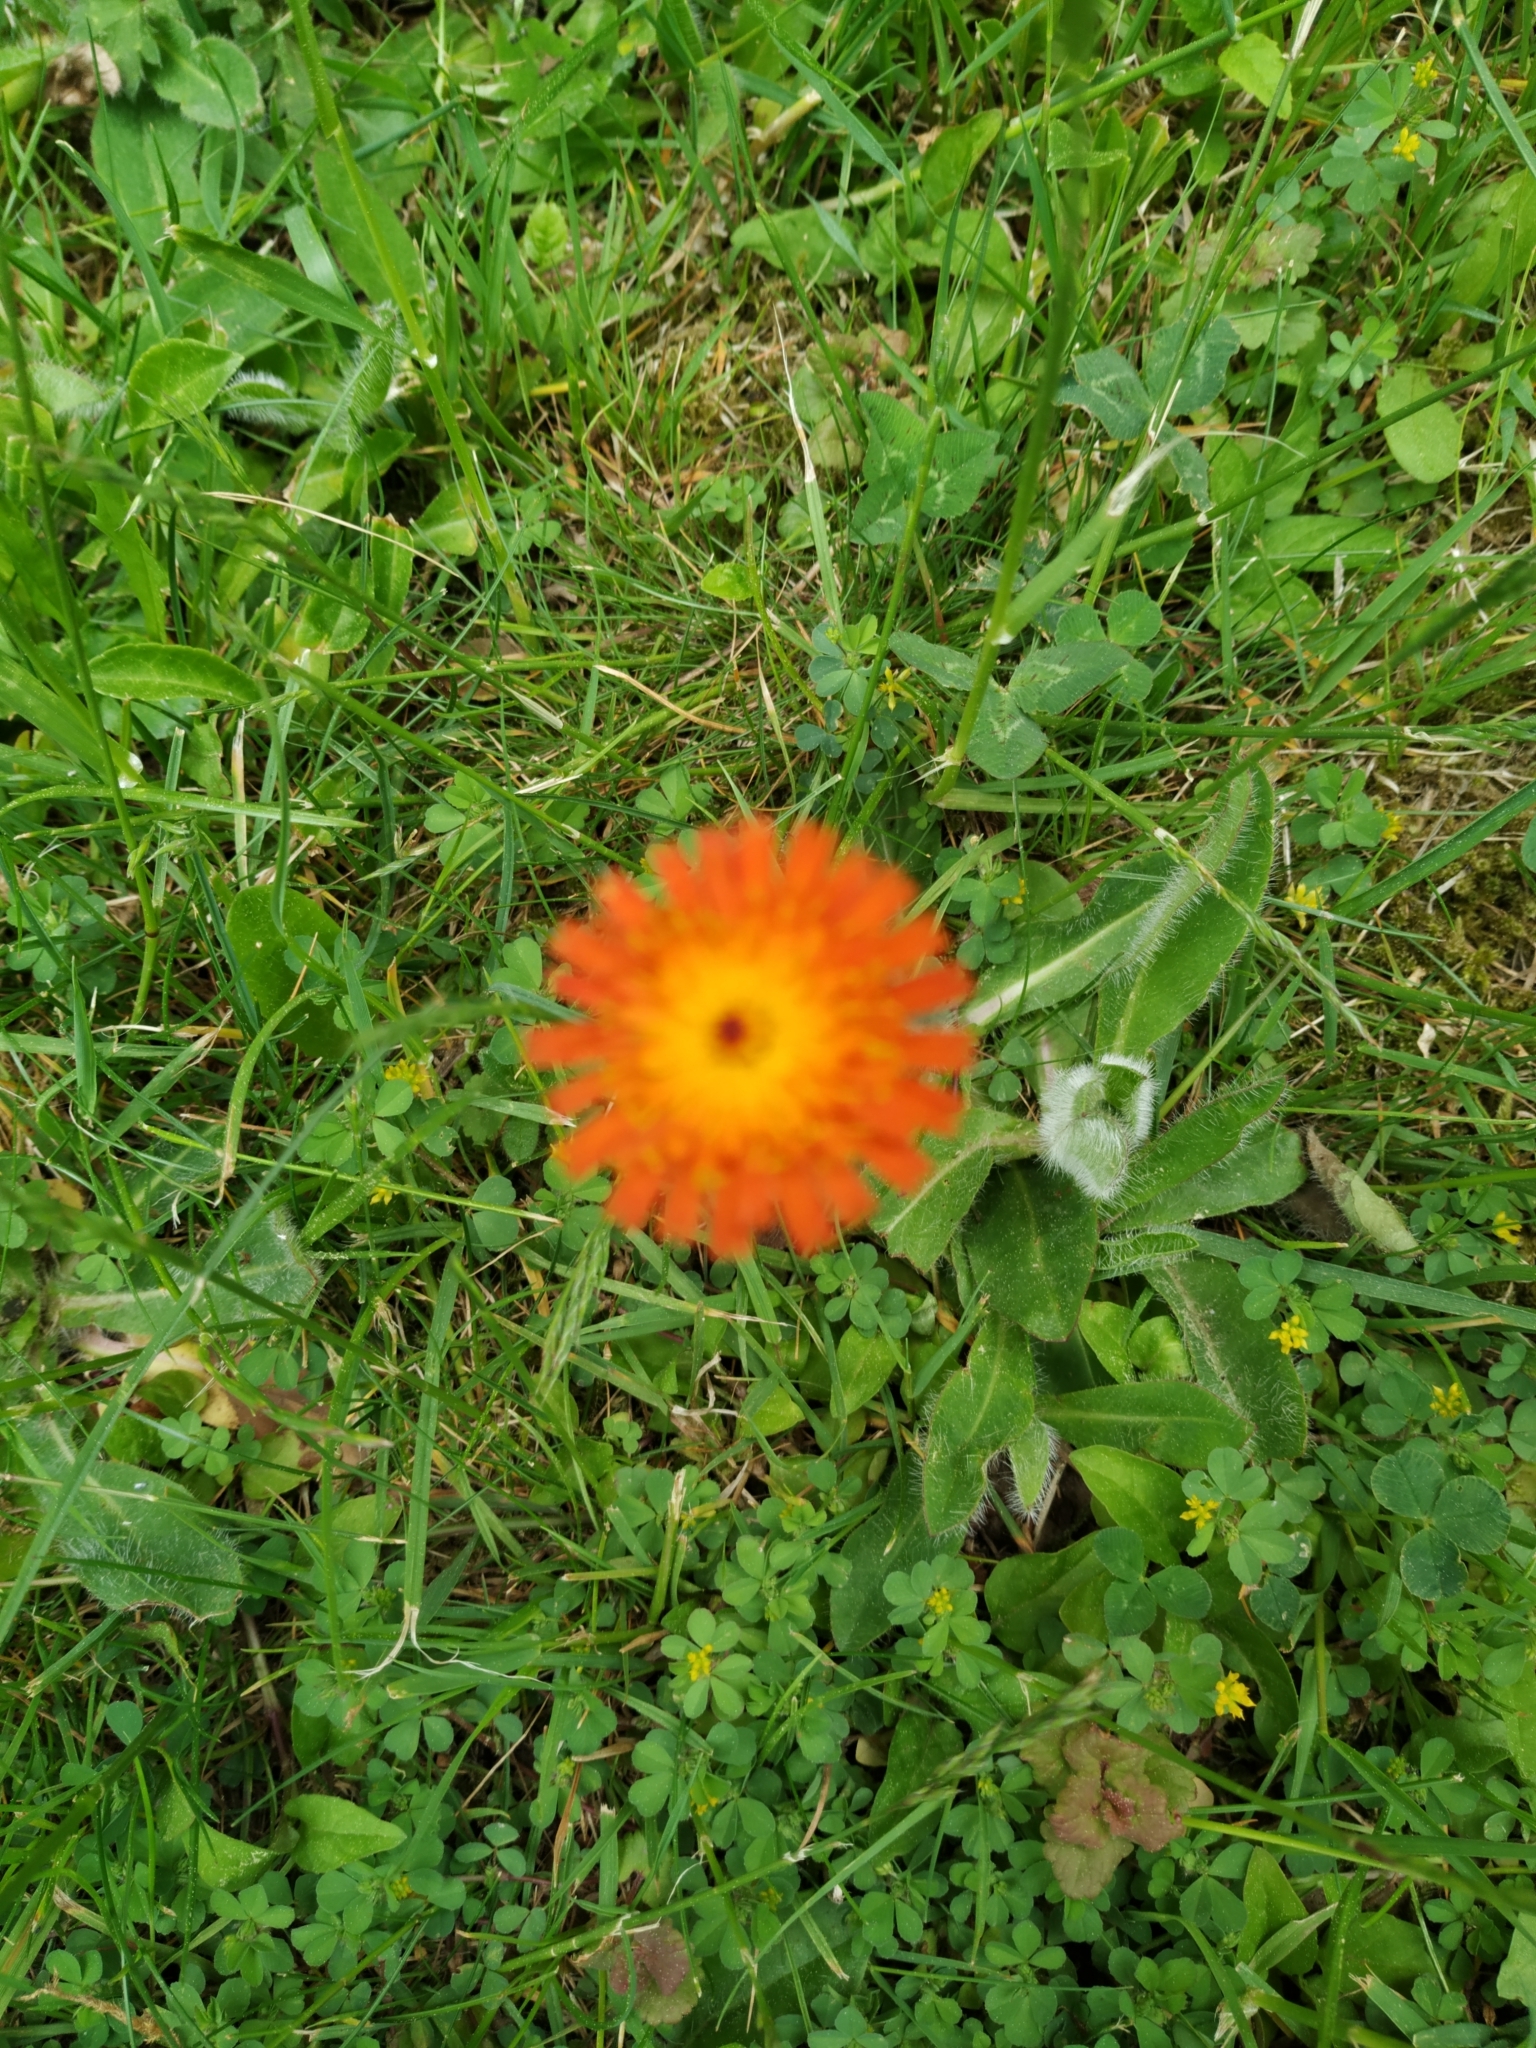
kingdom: Plantae
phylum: Tracheophyta
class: Magnoliopsida
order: Asterales
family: Asteraceae
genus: Pilosella
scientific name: Pilosella aurantiaca
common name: Fox-and-cubs
